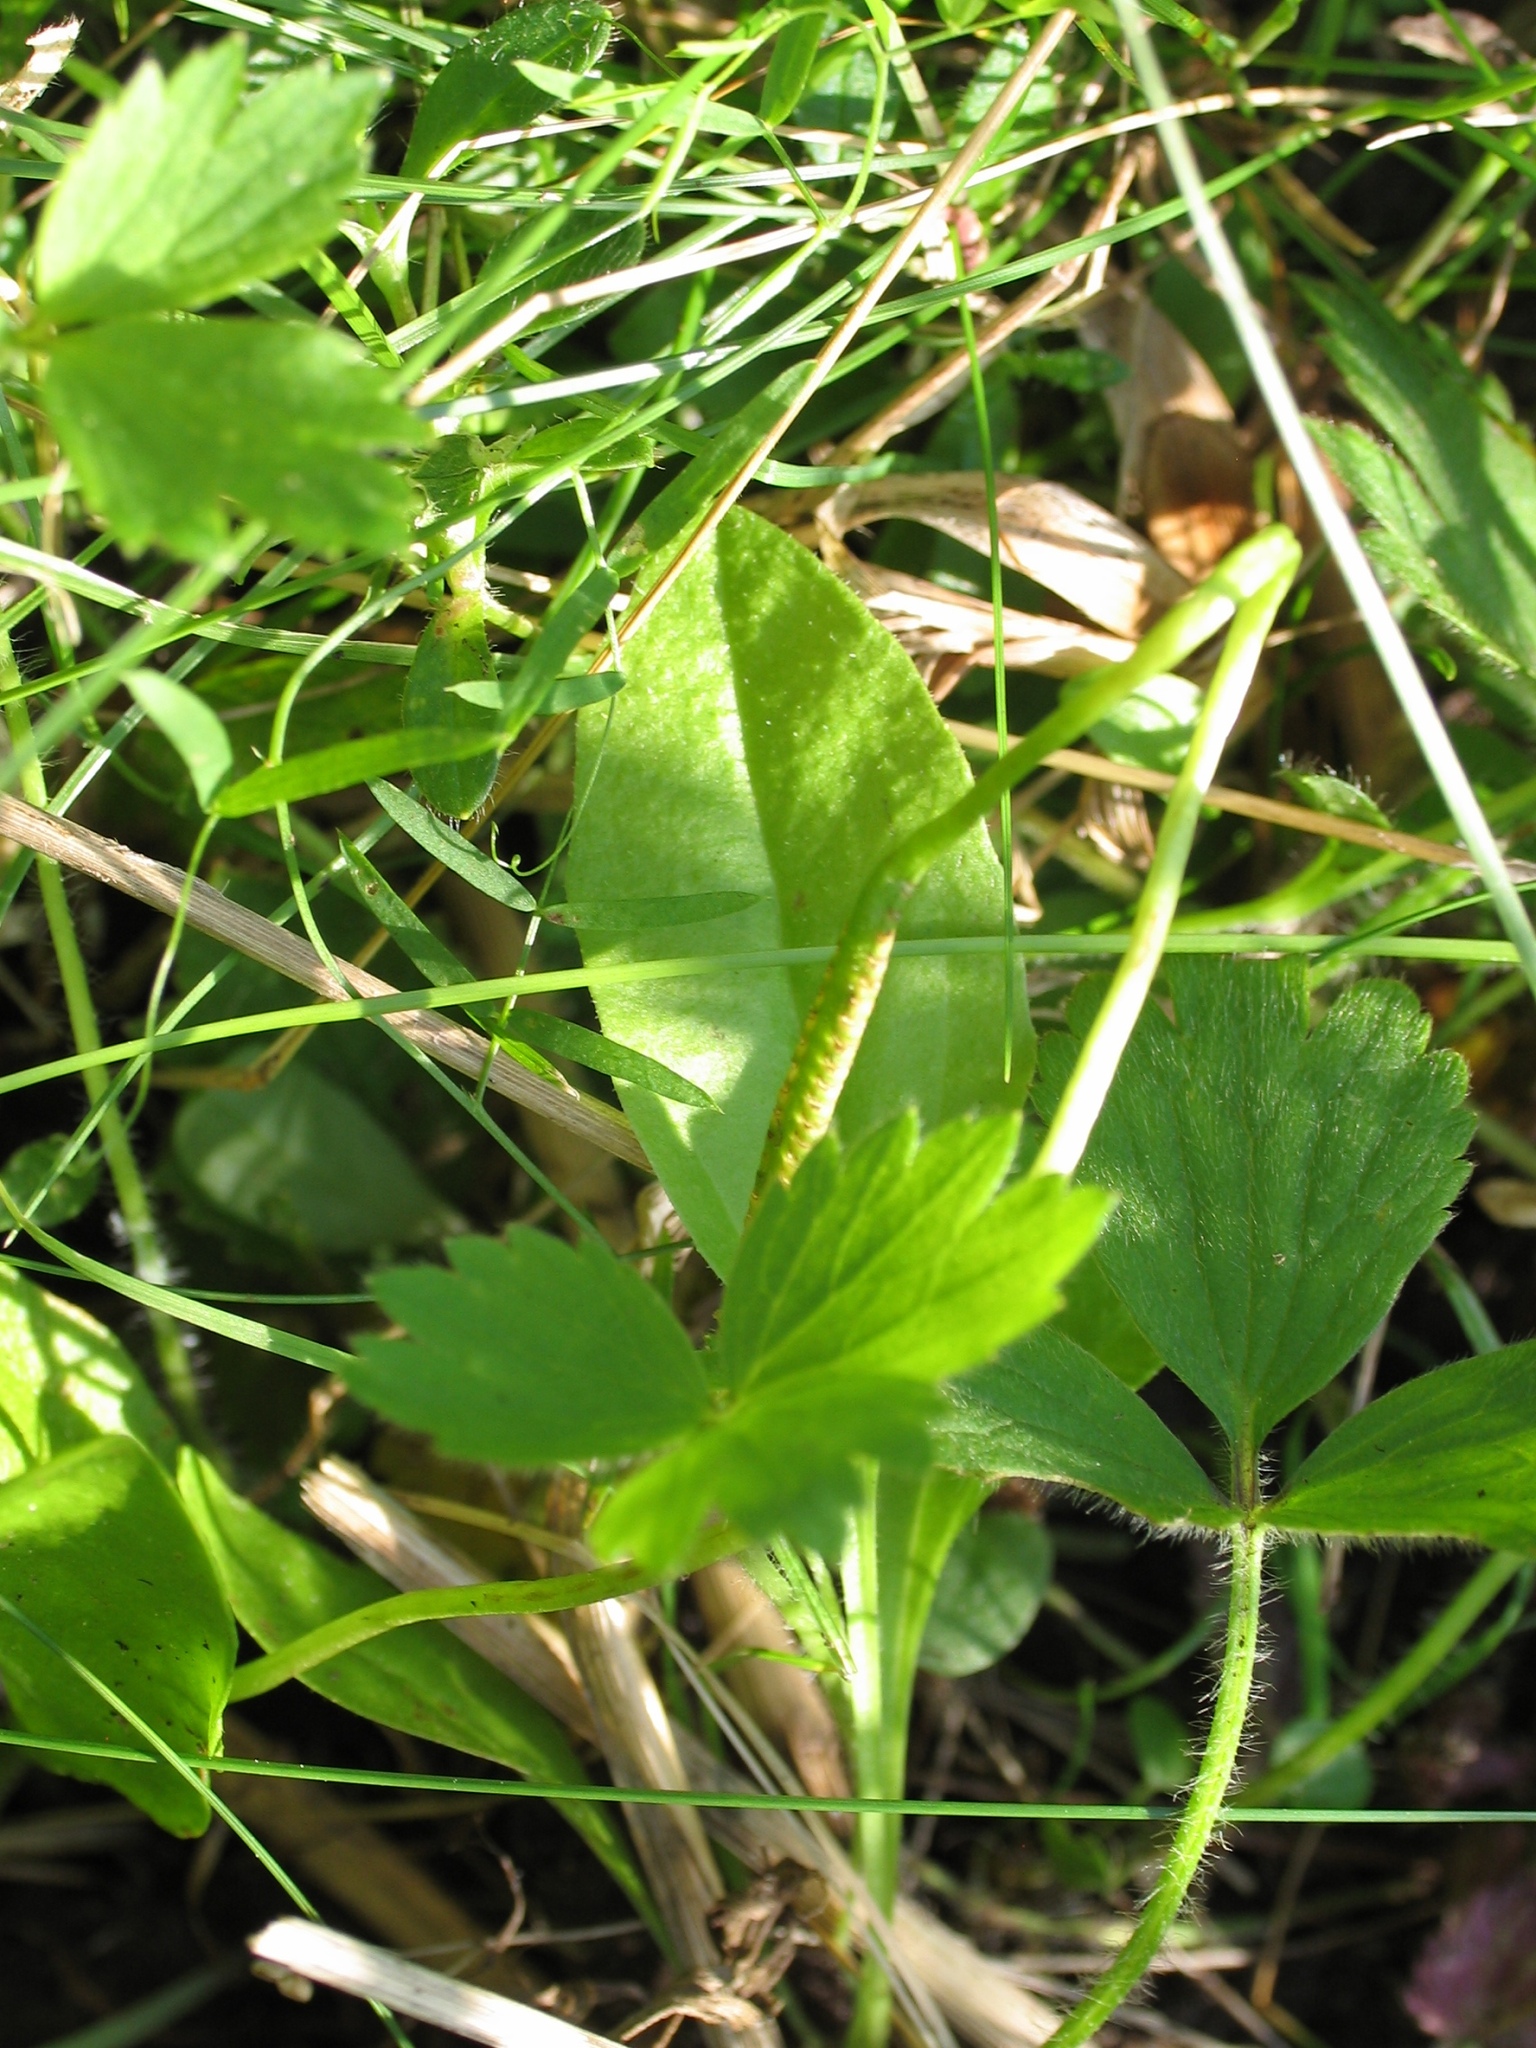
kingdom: Plantae
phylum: Tracheophyta
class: Polypodiopsida
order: Ophioglossales
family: Ophioglossaceae
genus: Ophioglossum
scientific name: Ophioglossum vulgatum
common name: Adder's-tongue
